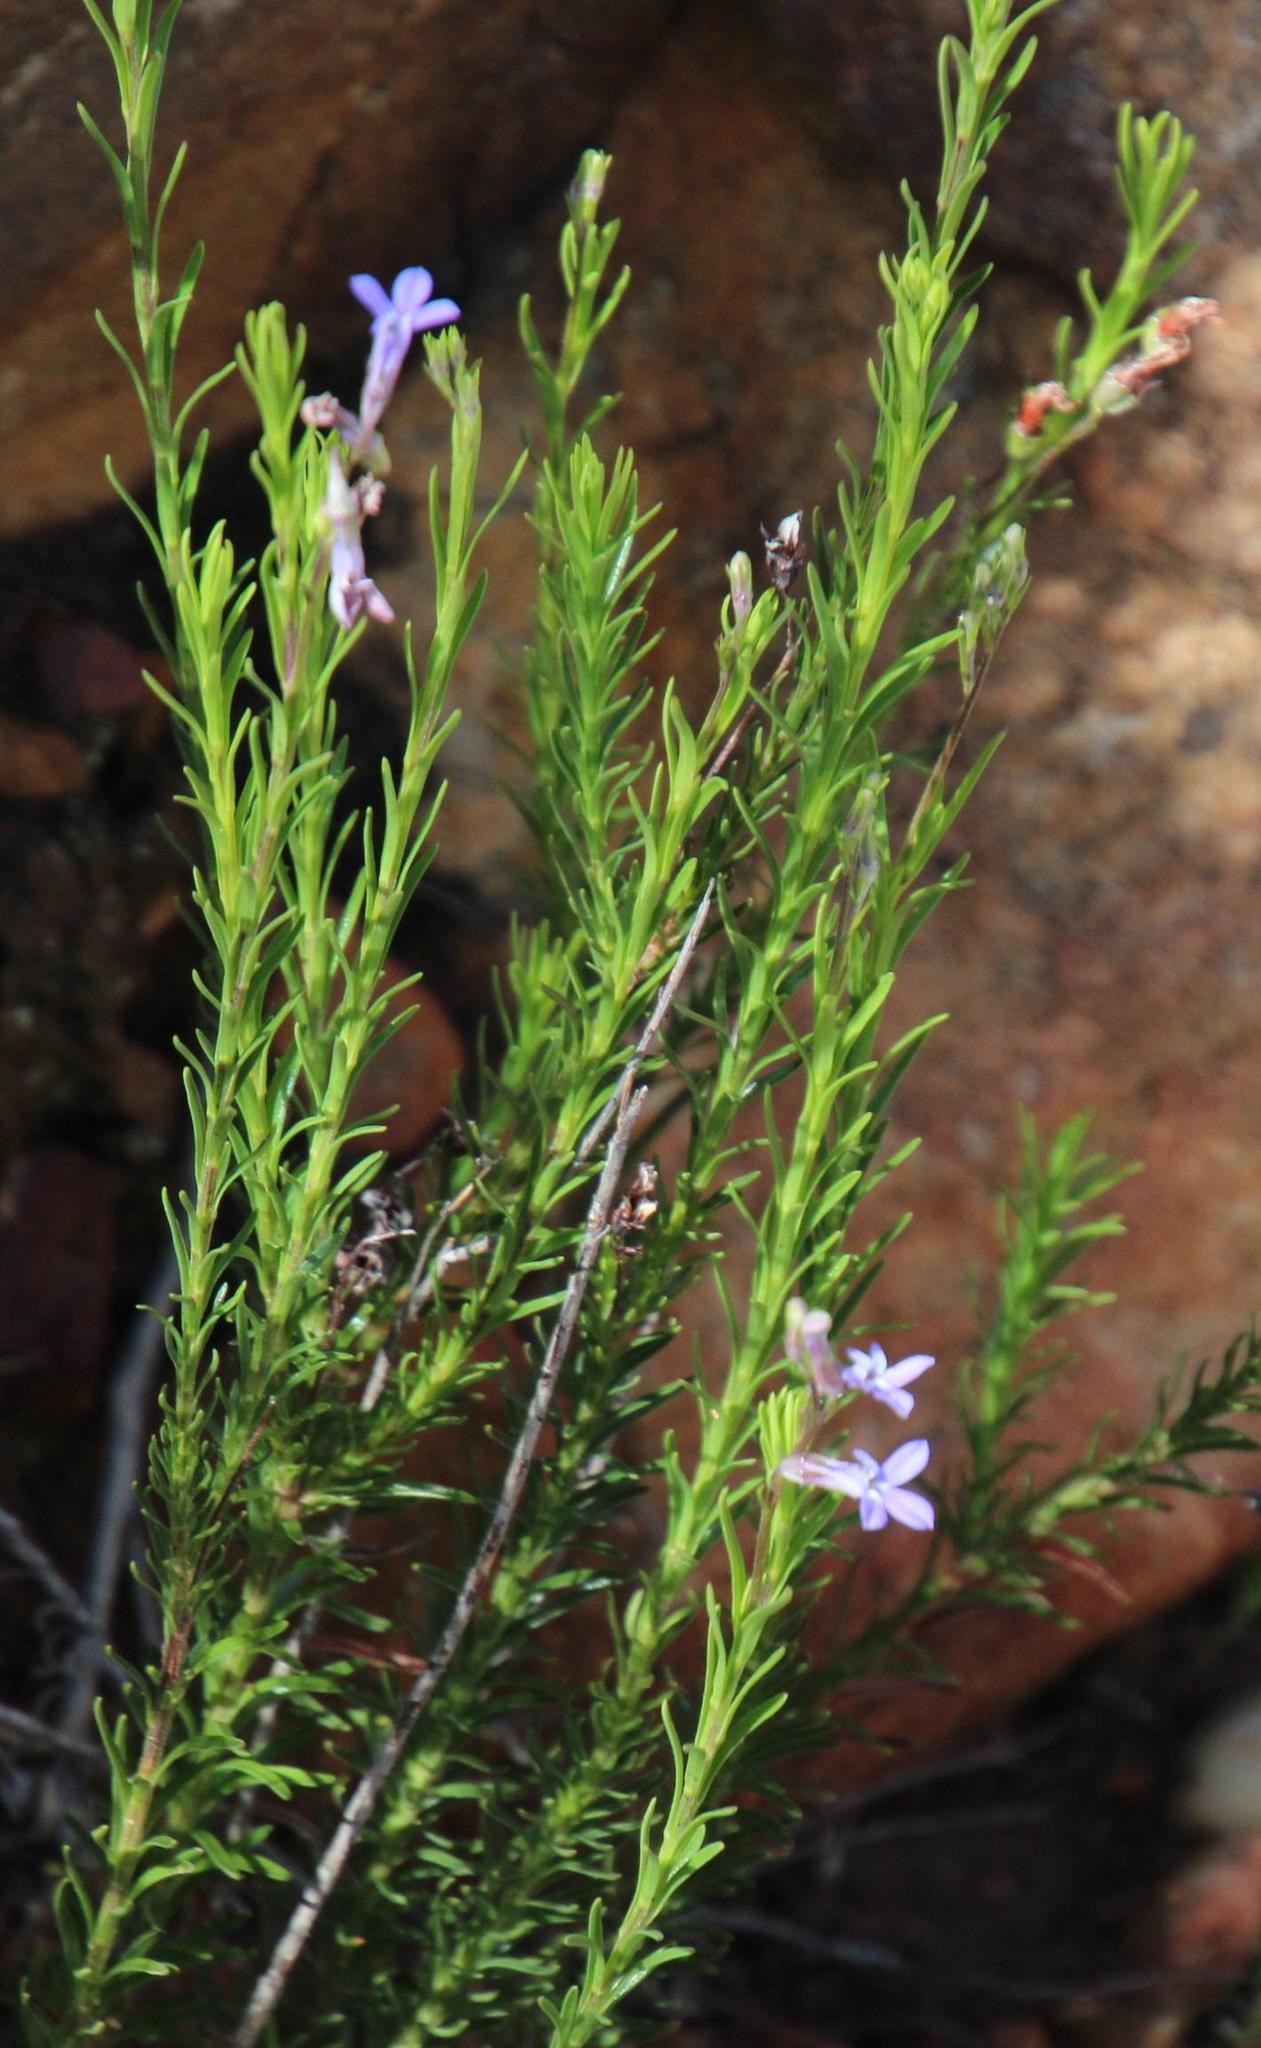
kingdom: Plantae
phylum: Tracheophyta
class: Magnoliopsida
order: Asterales
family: Campanulaceae
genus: Lobelia
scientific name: Lobelia pinifolia
